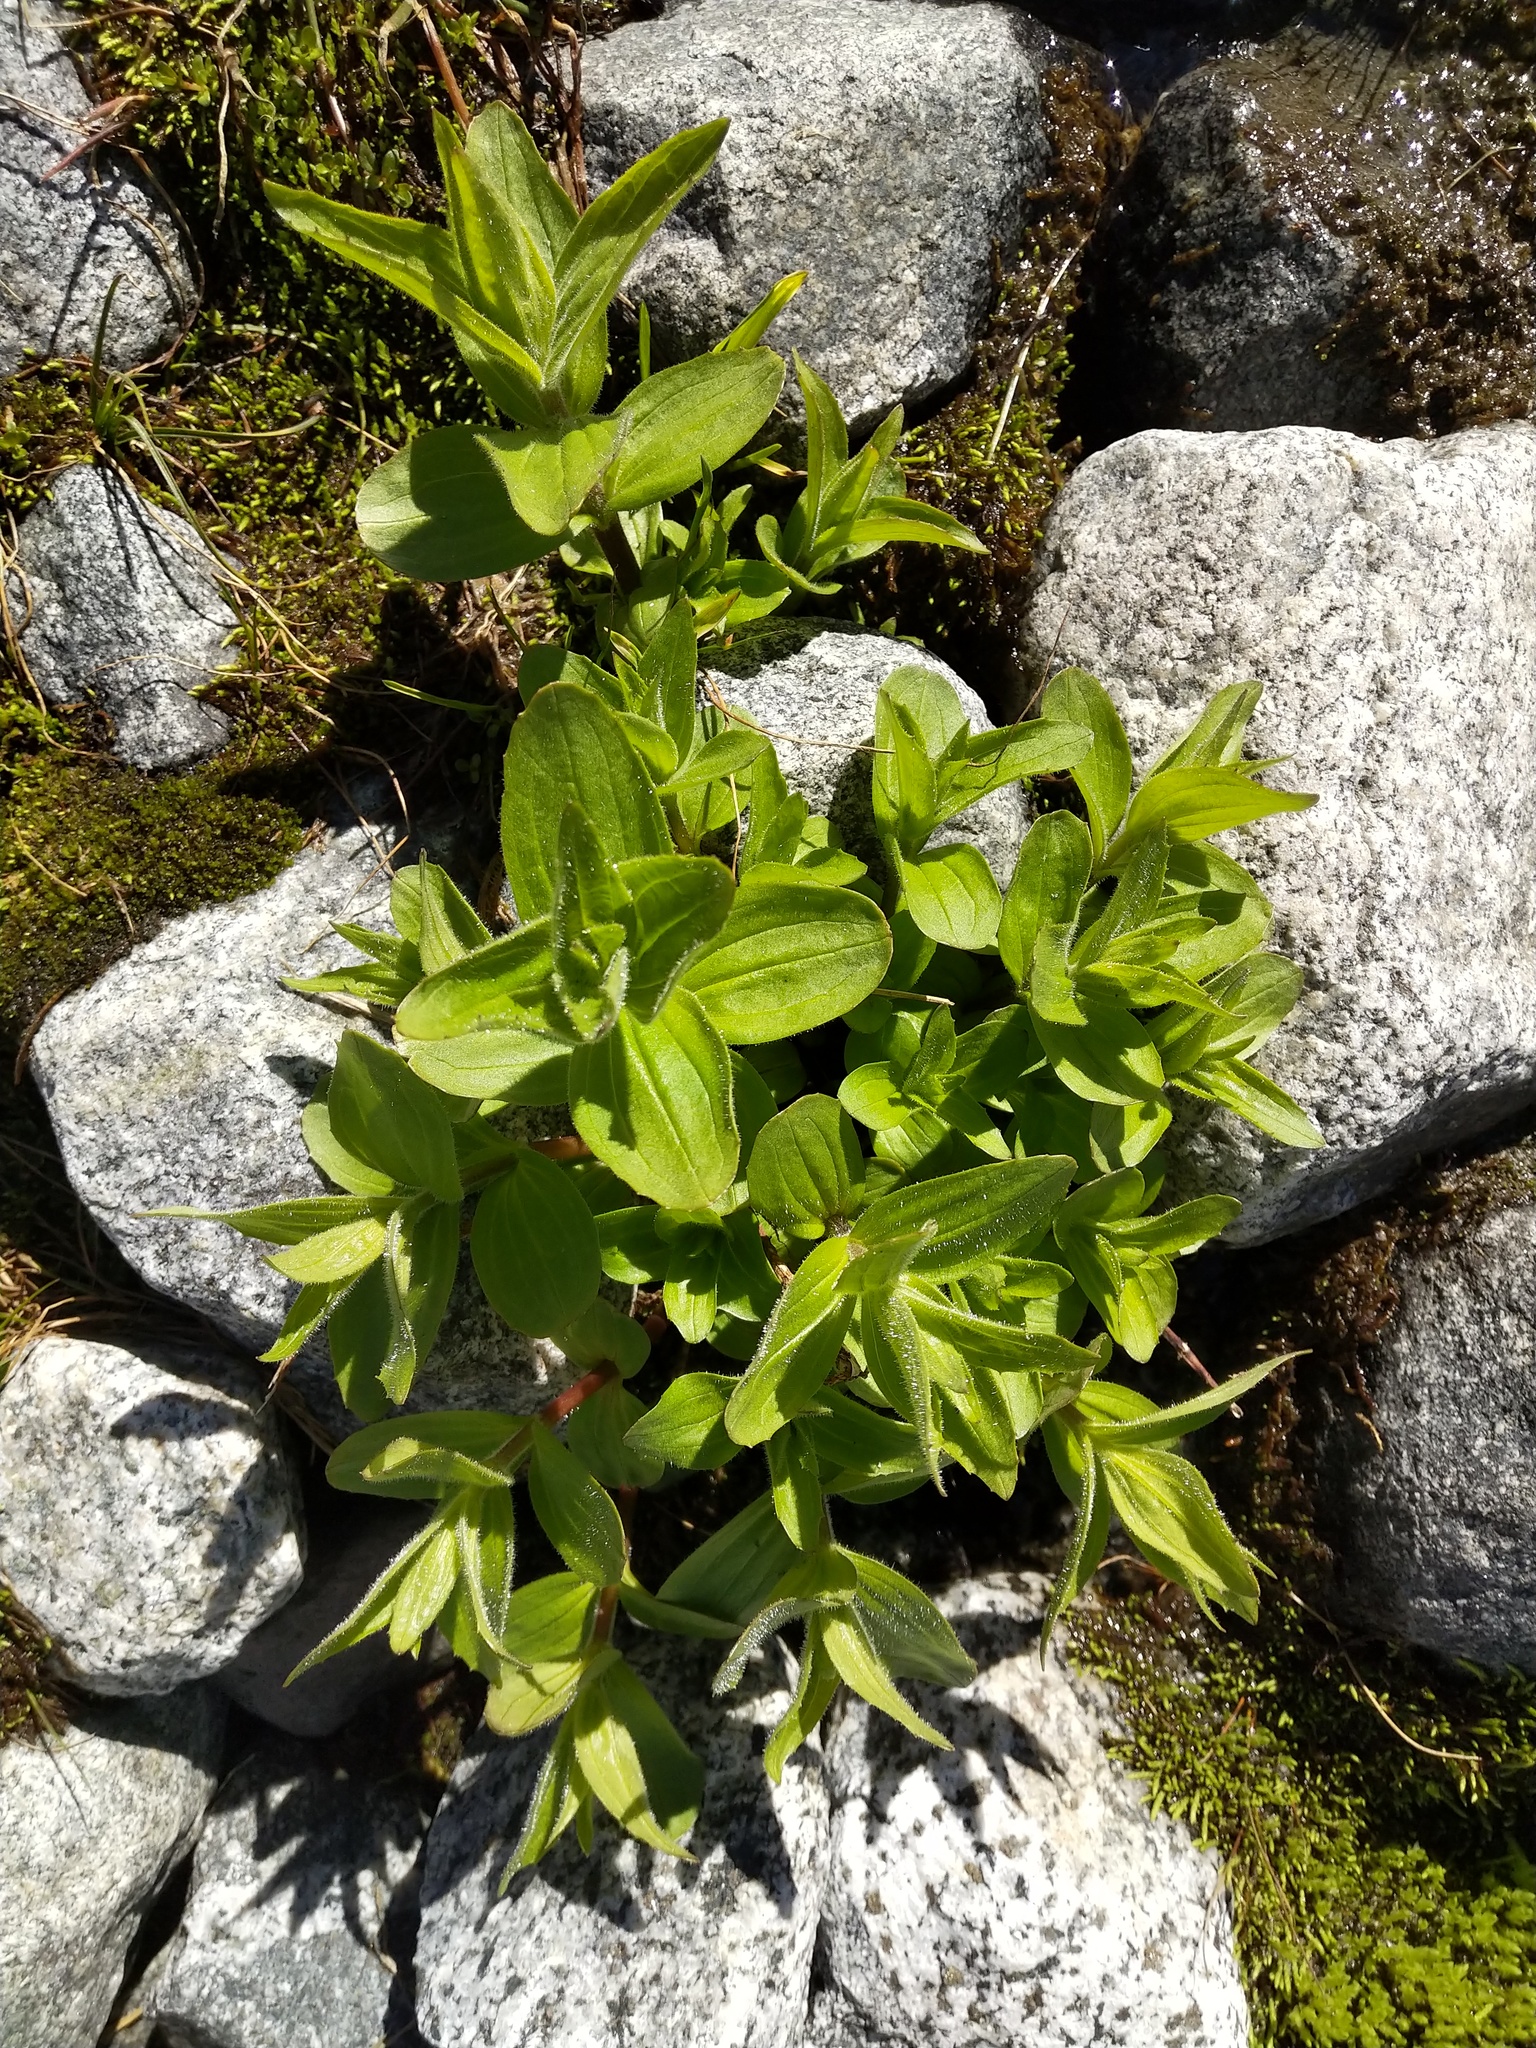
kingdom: Plantae
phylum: Tracheophyta
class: Magnoliopsida
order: Lamiales
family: Phrymaceae
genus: Erythranthe
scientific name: Erythranthe lewisii
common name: Lewis's monkey-flower
